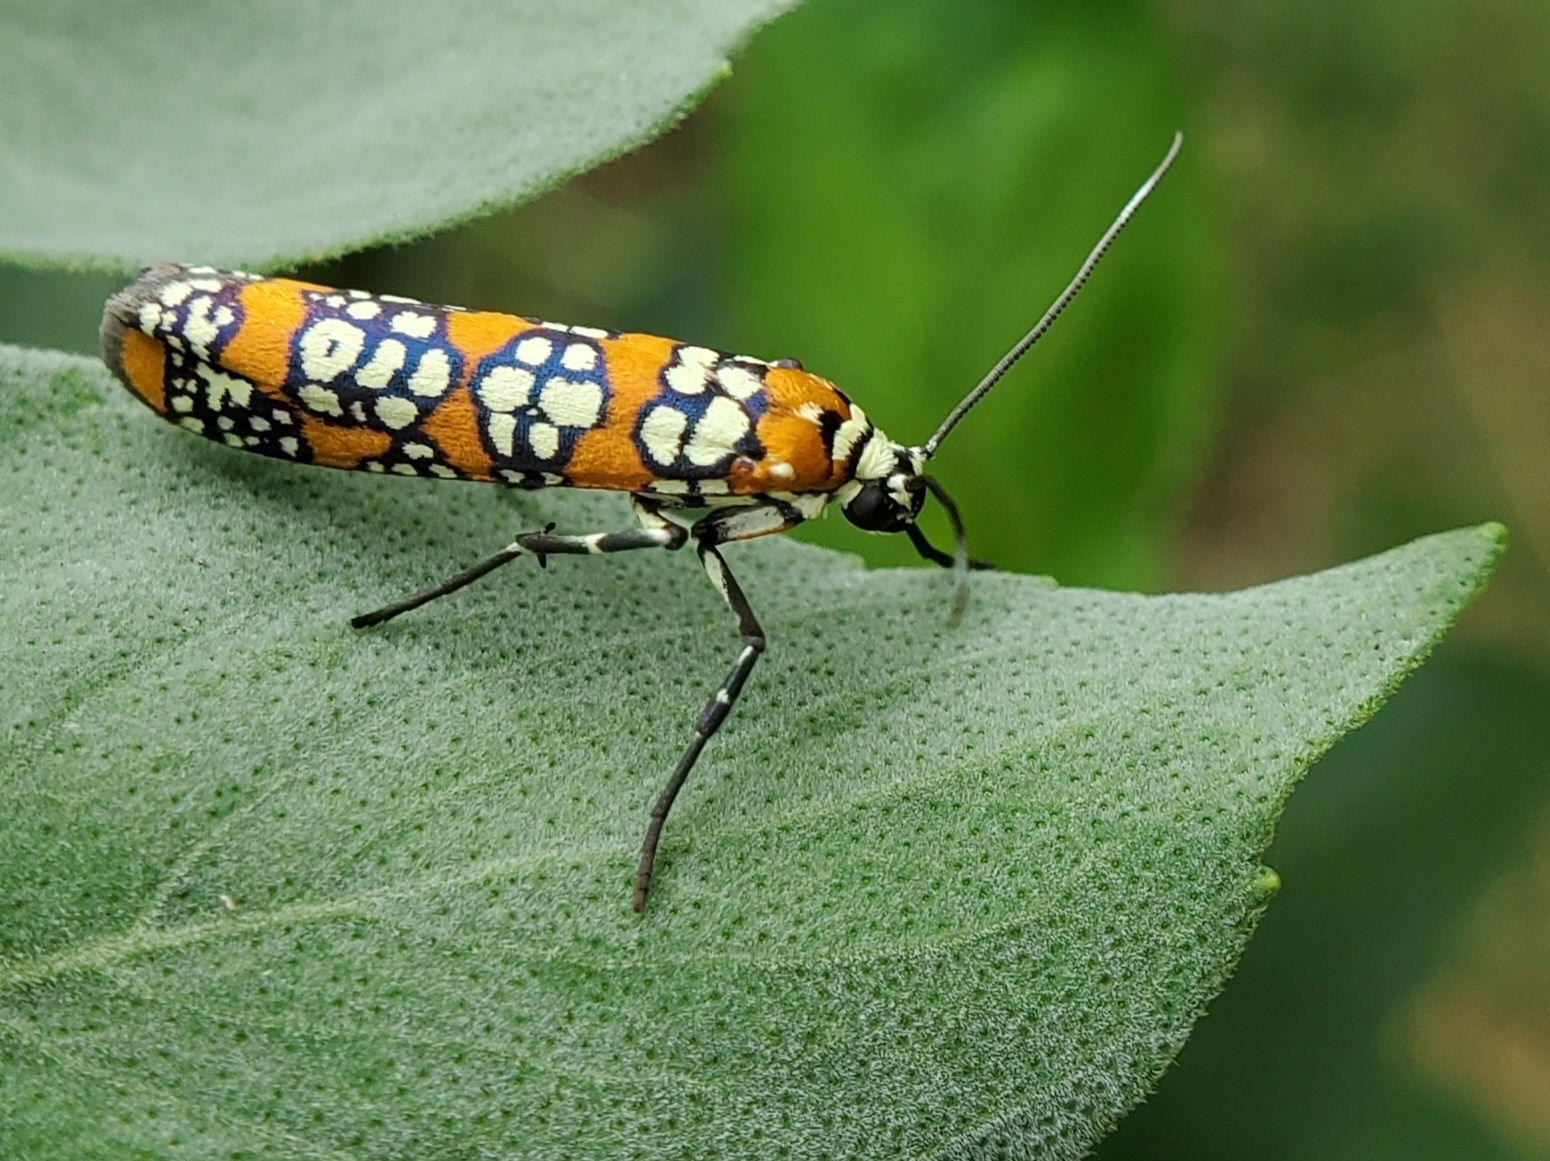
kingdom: Animalia
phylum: Arthropoda
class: Insecta
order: Lepidoptera
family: Attevidae
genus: Atteva
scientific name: Atteva punctella
